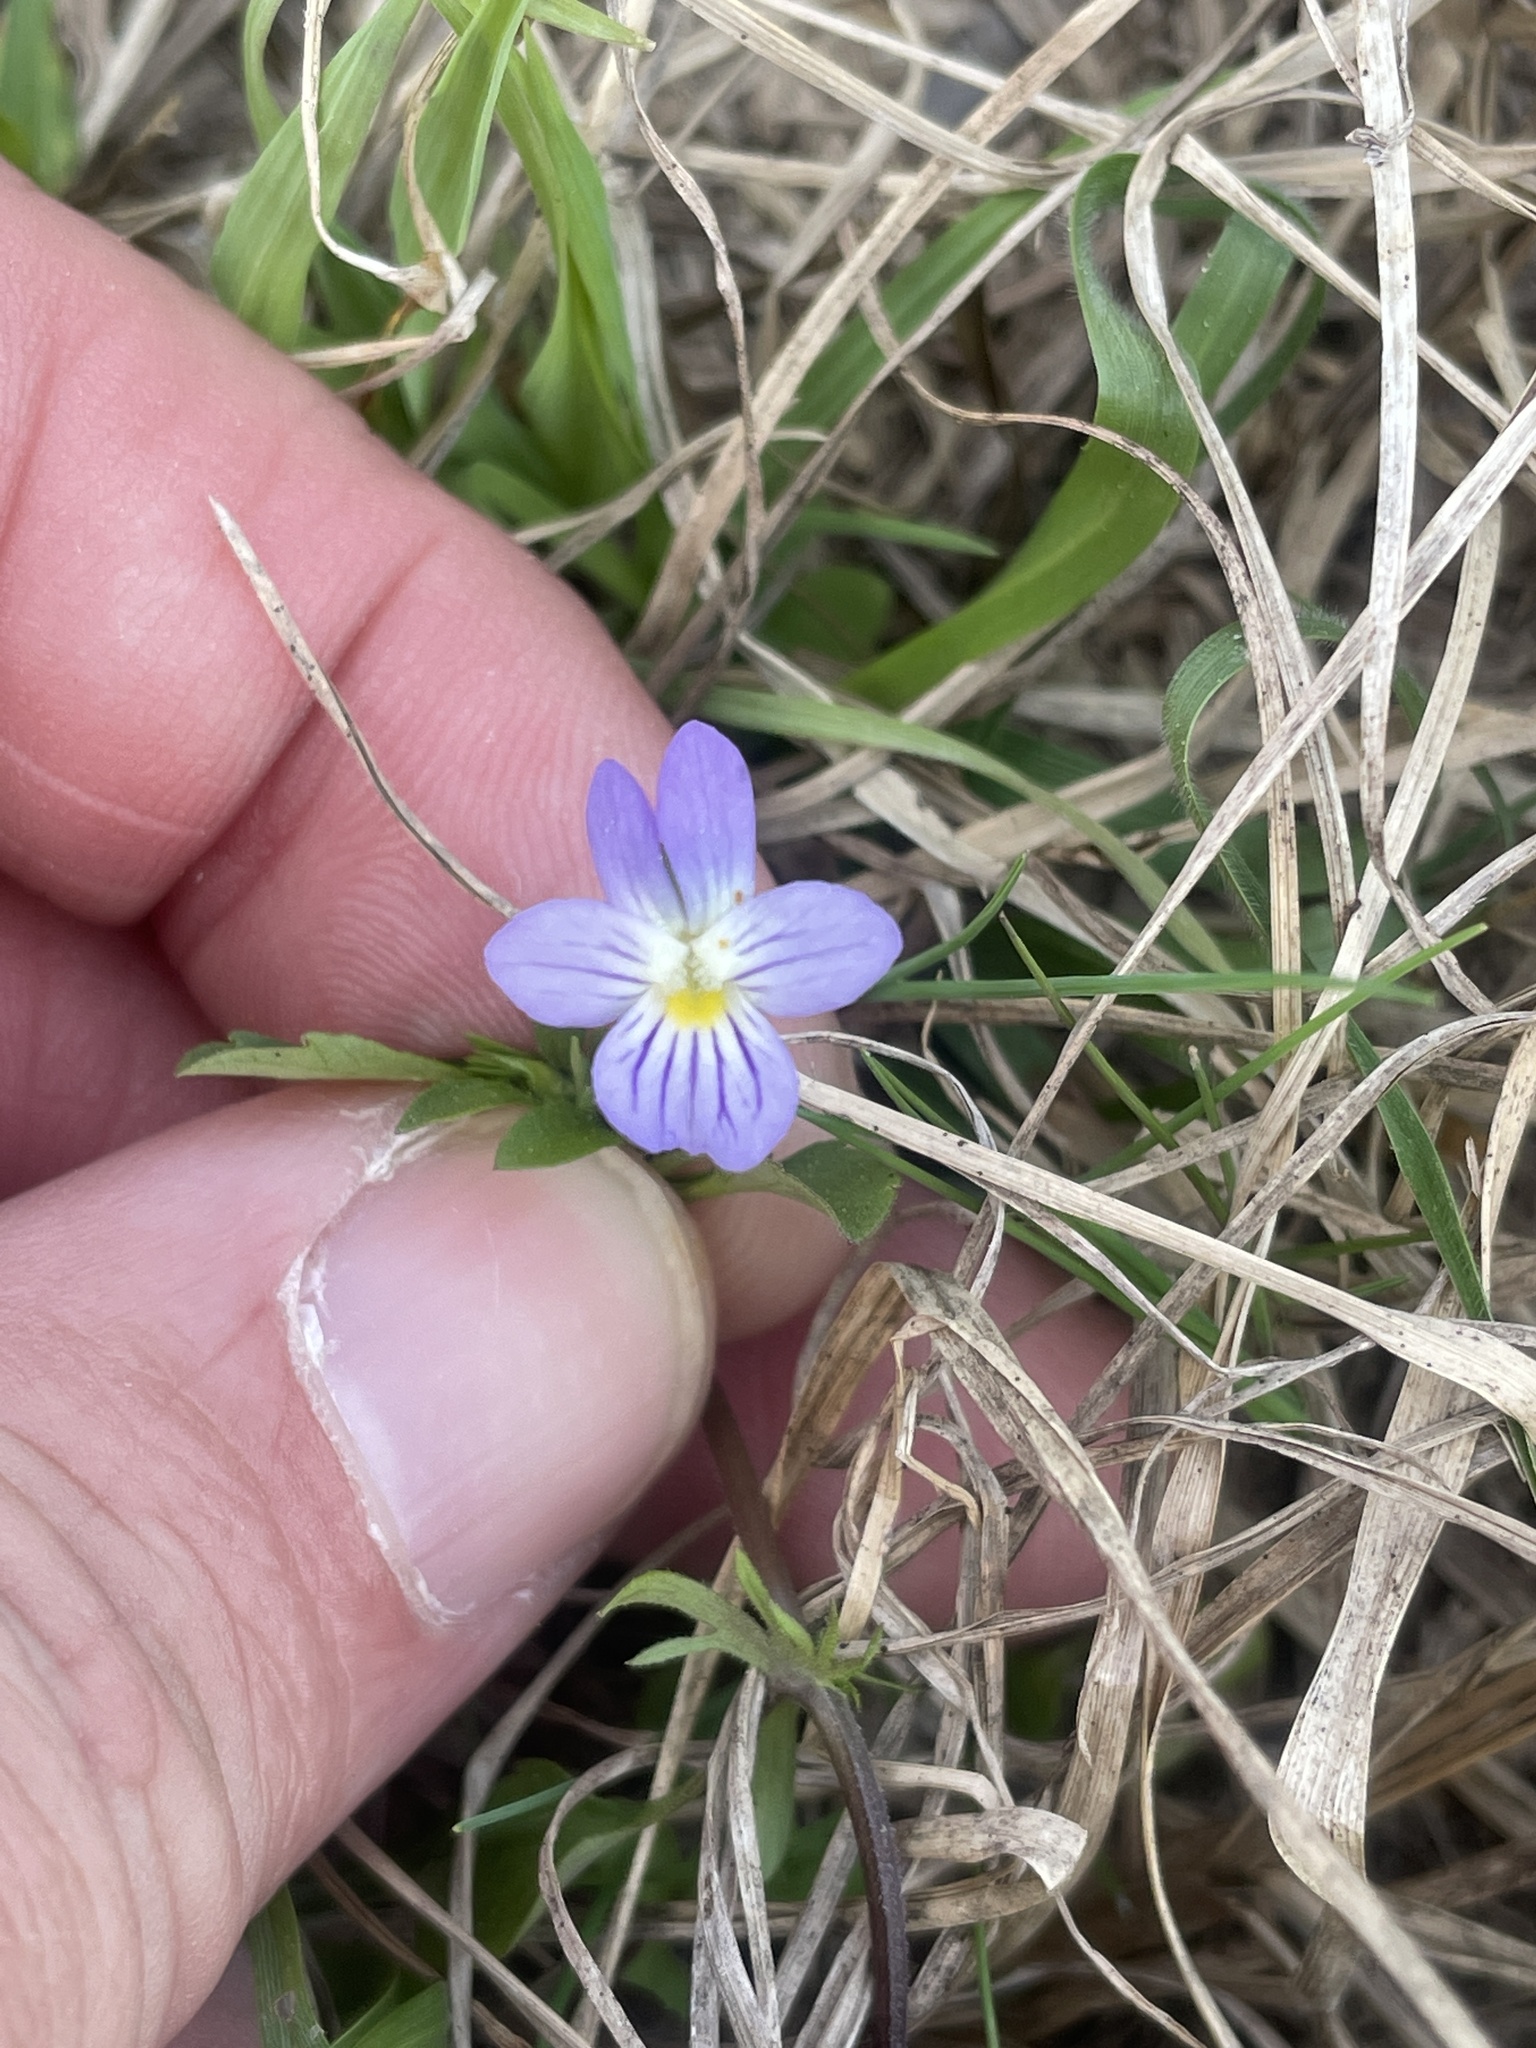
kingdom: Plantae
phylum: Tracheophyta
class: Magnoliopsida
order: Malpighiales
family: Violaceae
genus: Viola
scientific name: Viola rafinesquei
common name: American field pansy
